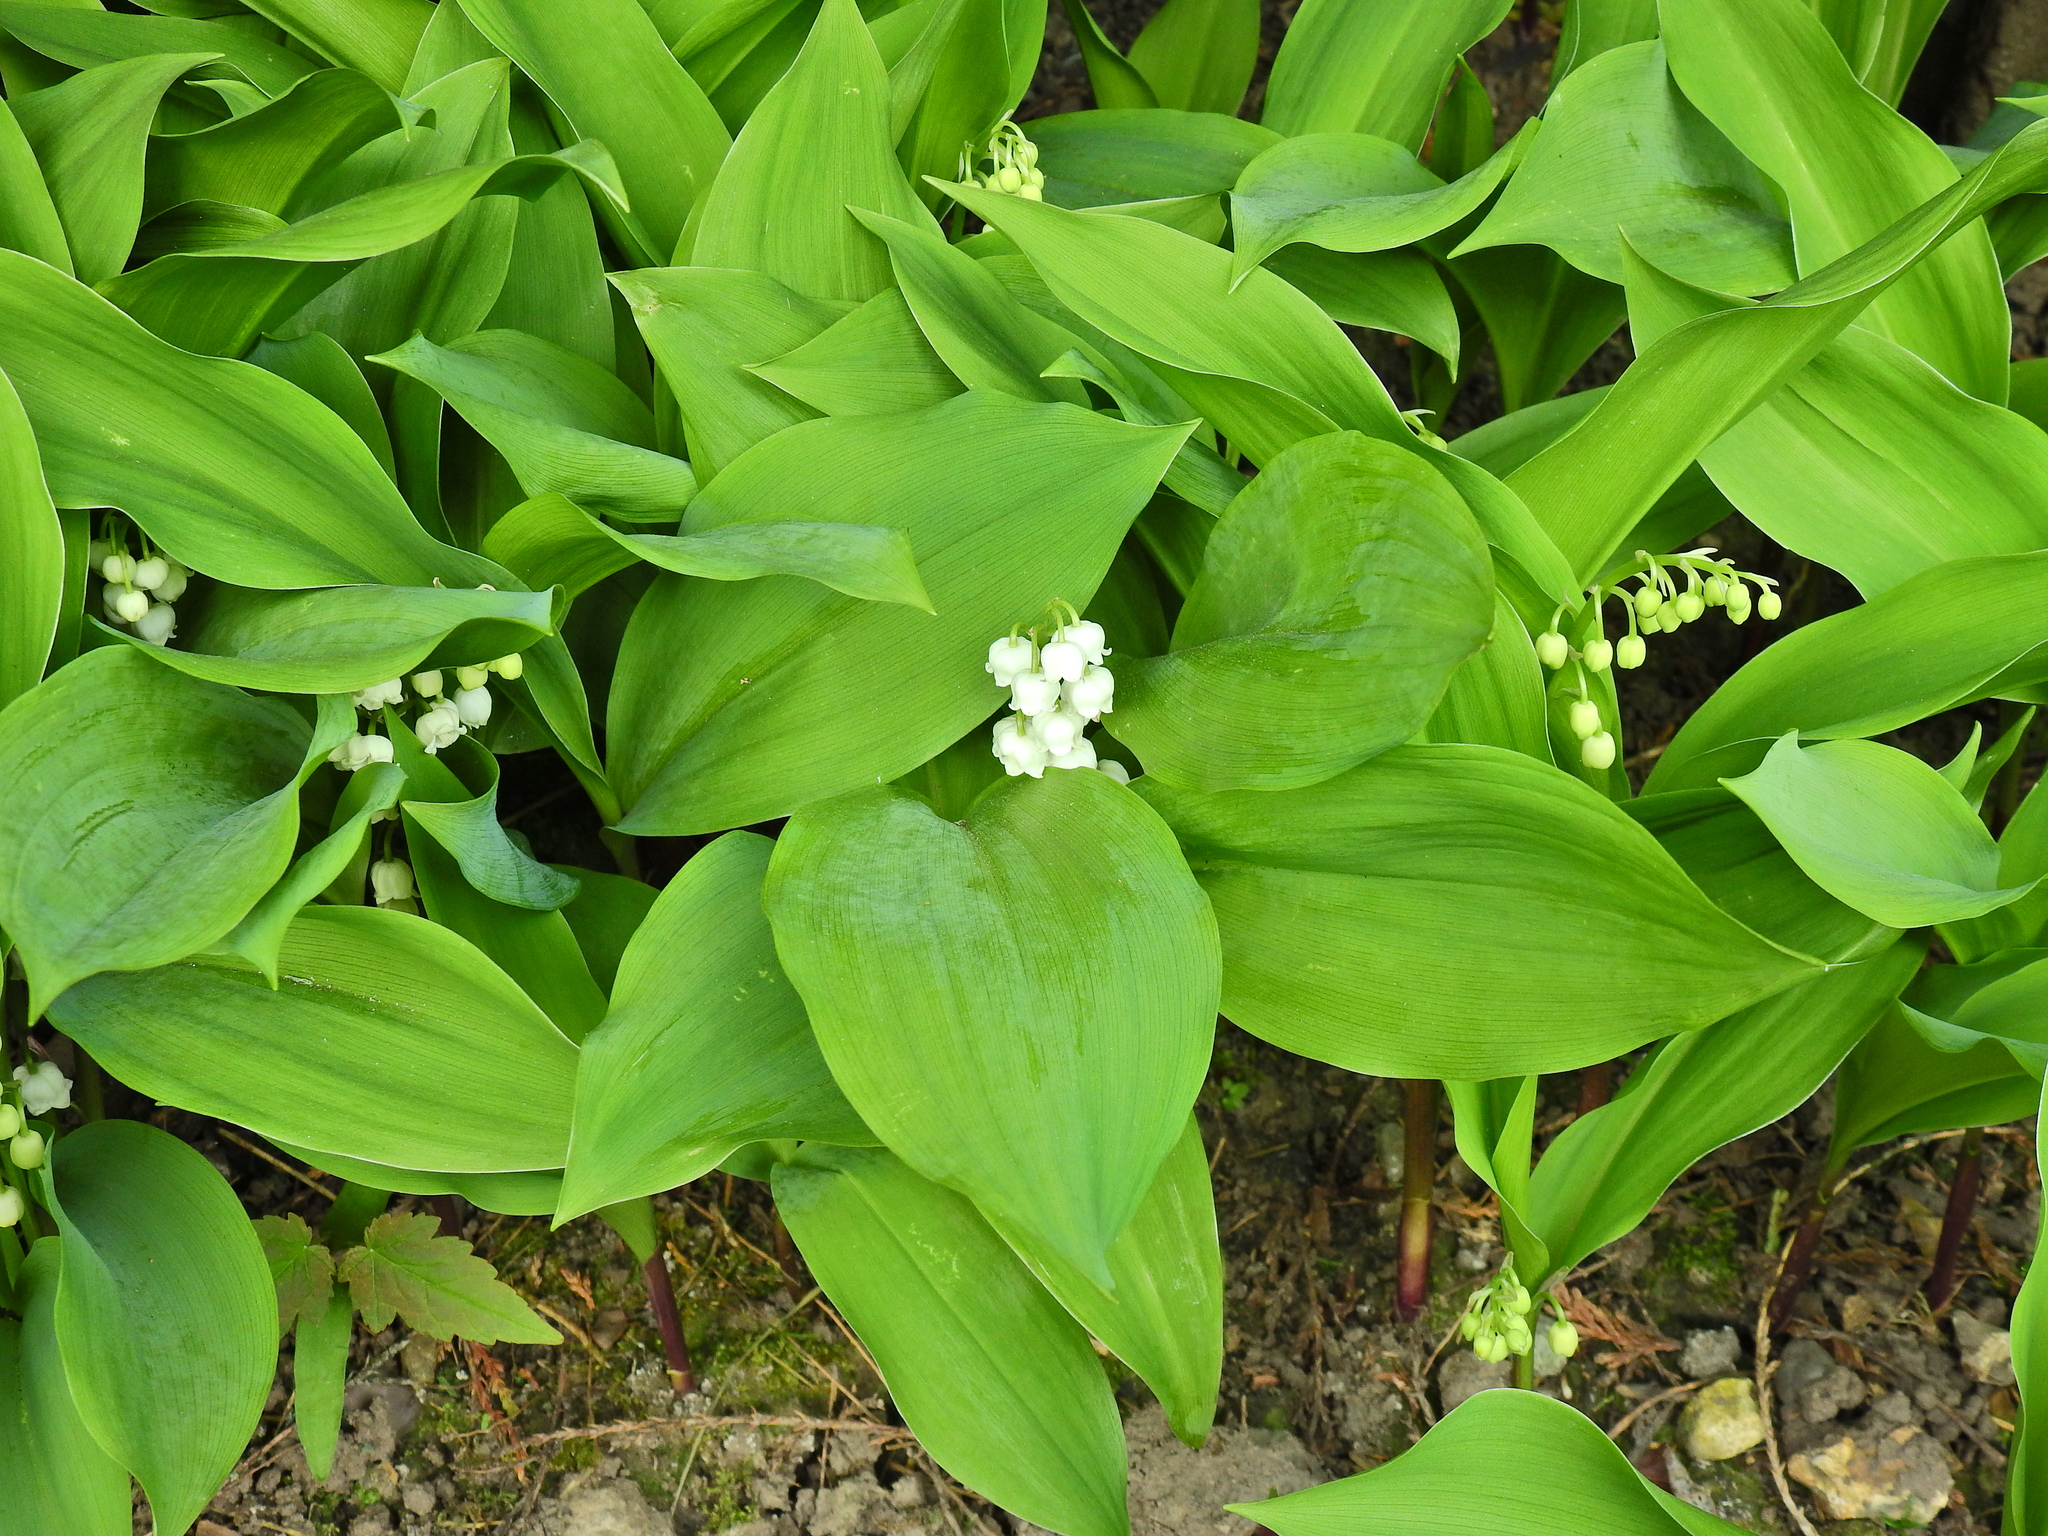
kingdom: Plantae
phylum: Tracheophyta
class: Liliopsida
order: Asparagales
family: Asparagaceae
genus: Convallaria
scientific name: Convallaria majalis
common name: Lily-of-the-valley
